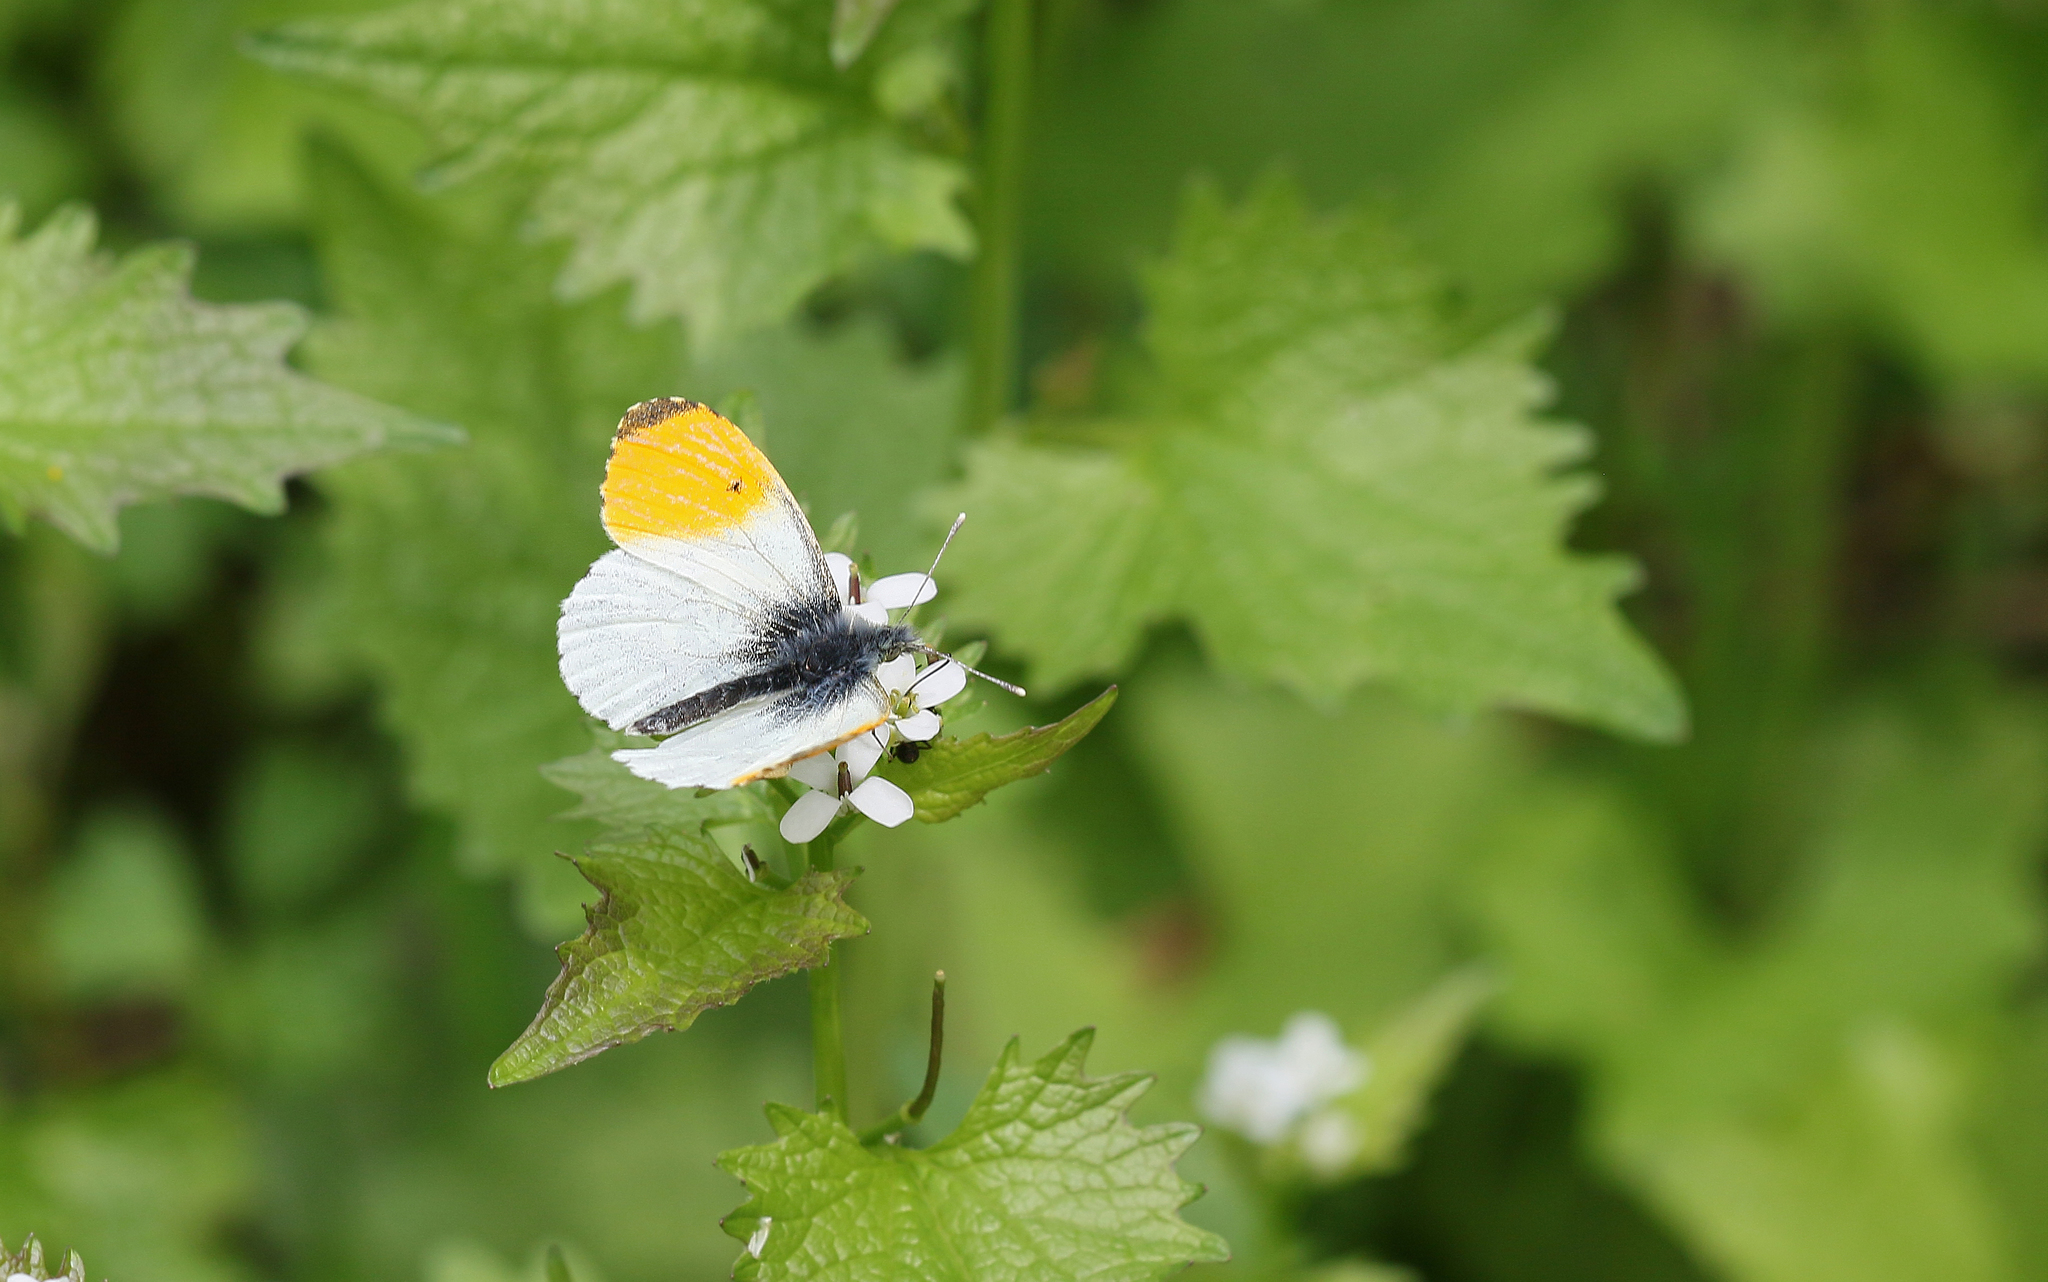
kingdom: Animalia
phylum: Arthropoda
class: Insecta
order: Lepidoptera
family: Pieridae
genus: Anthocharis
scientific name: Anthocharis cardamines
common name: Orange-tip
